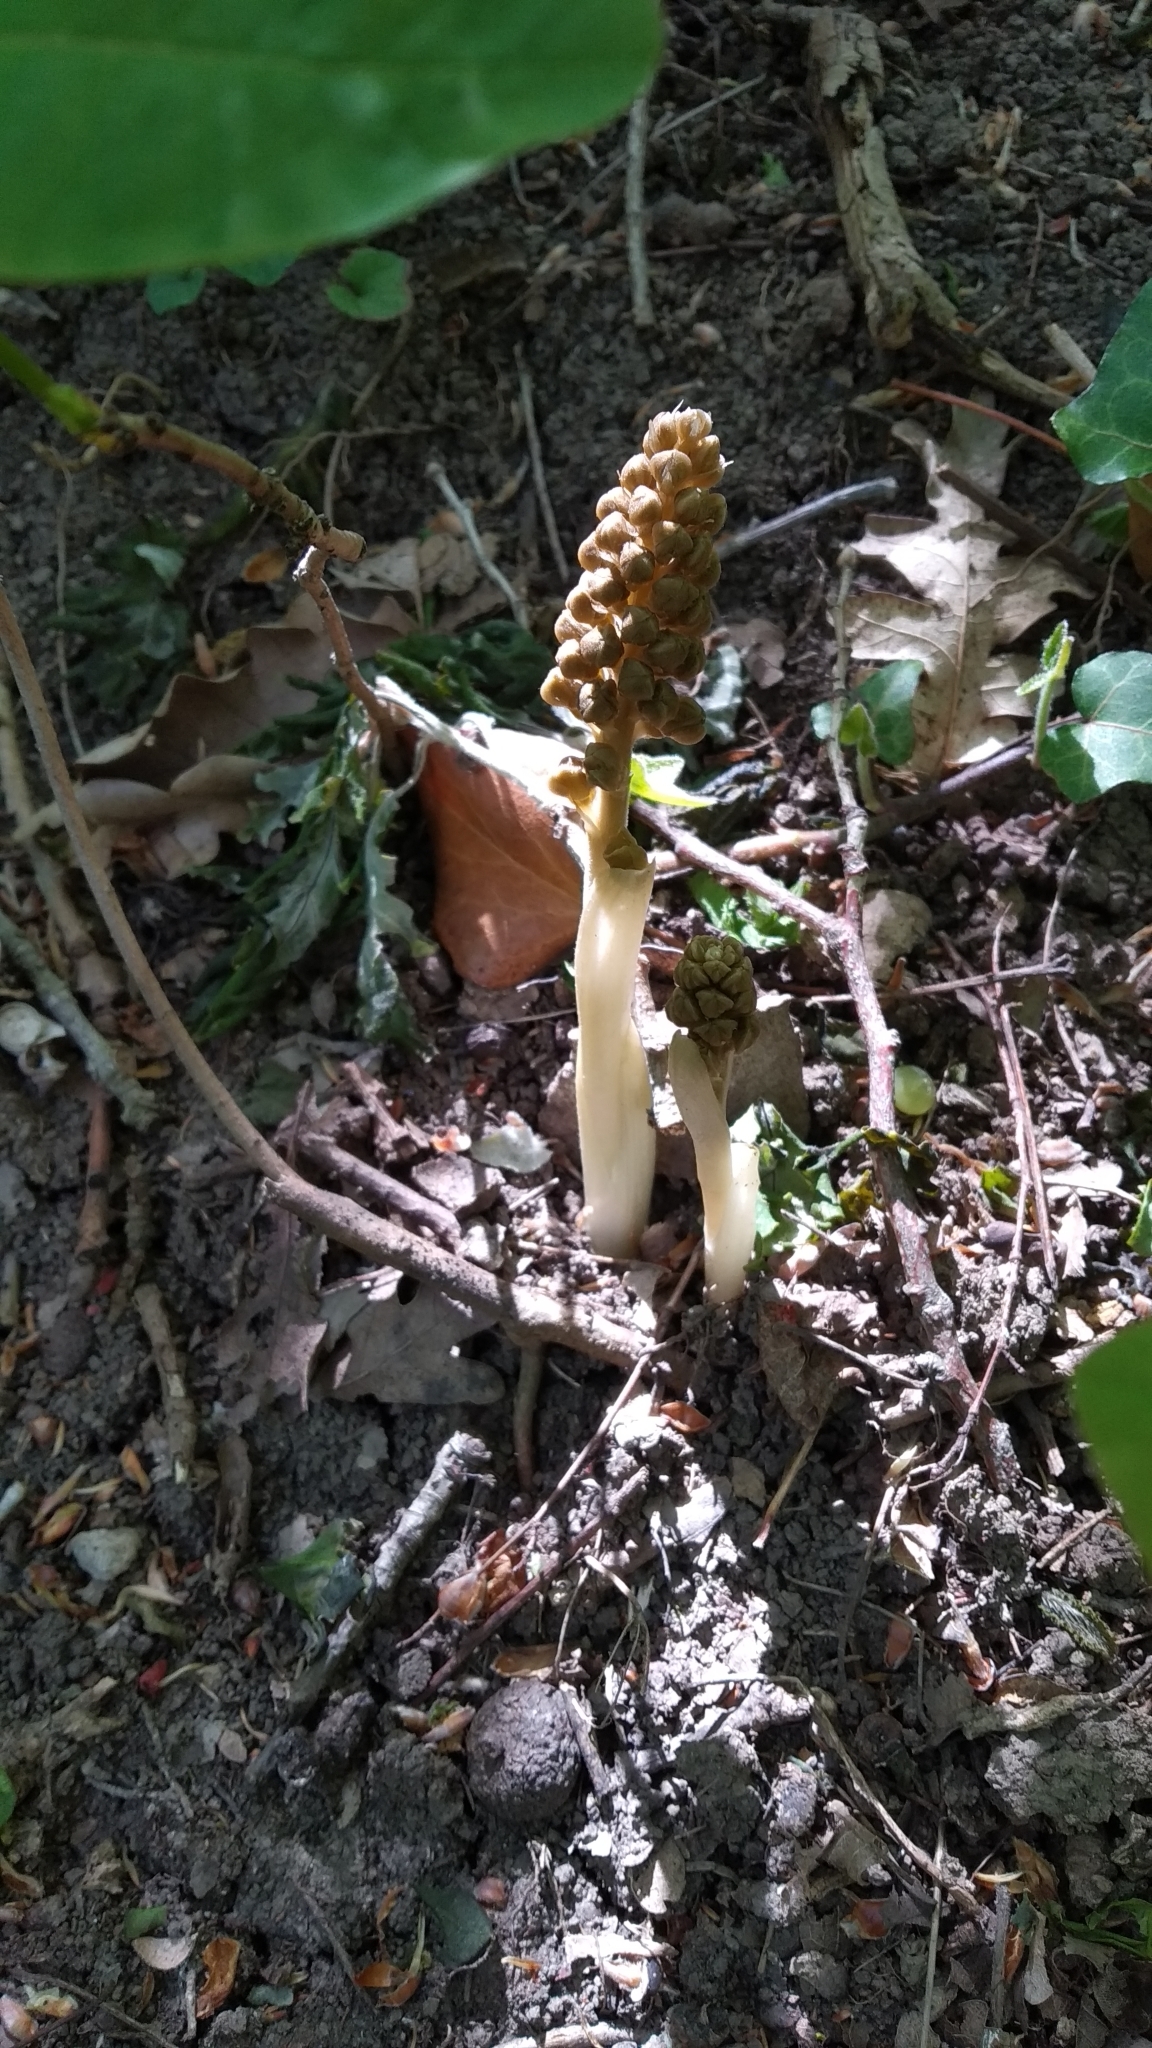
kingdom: Plantae
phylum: Tracheophyta
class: Liliopsida
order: Asparagales
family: Orchidaceae
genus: Neottia
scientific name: Neottia nidus-avis
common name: Bird's-nest orchid
